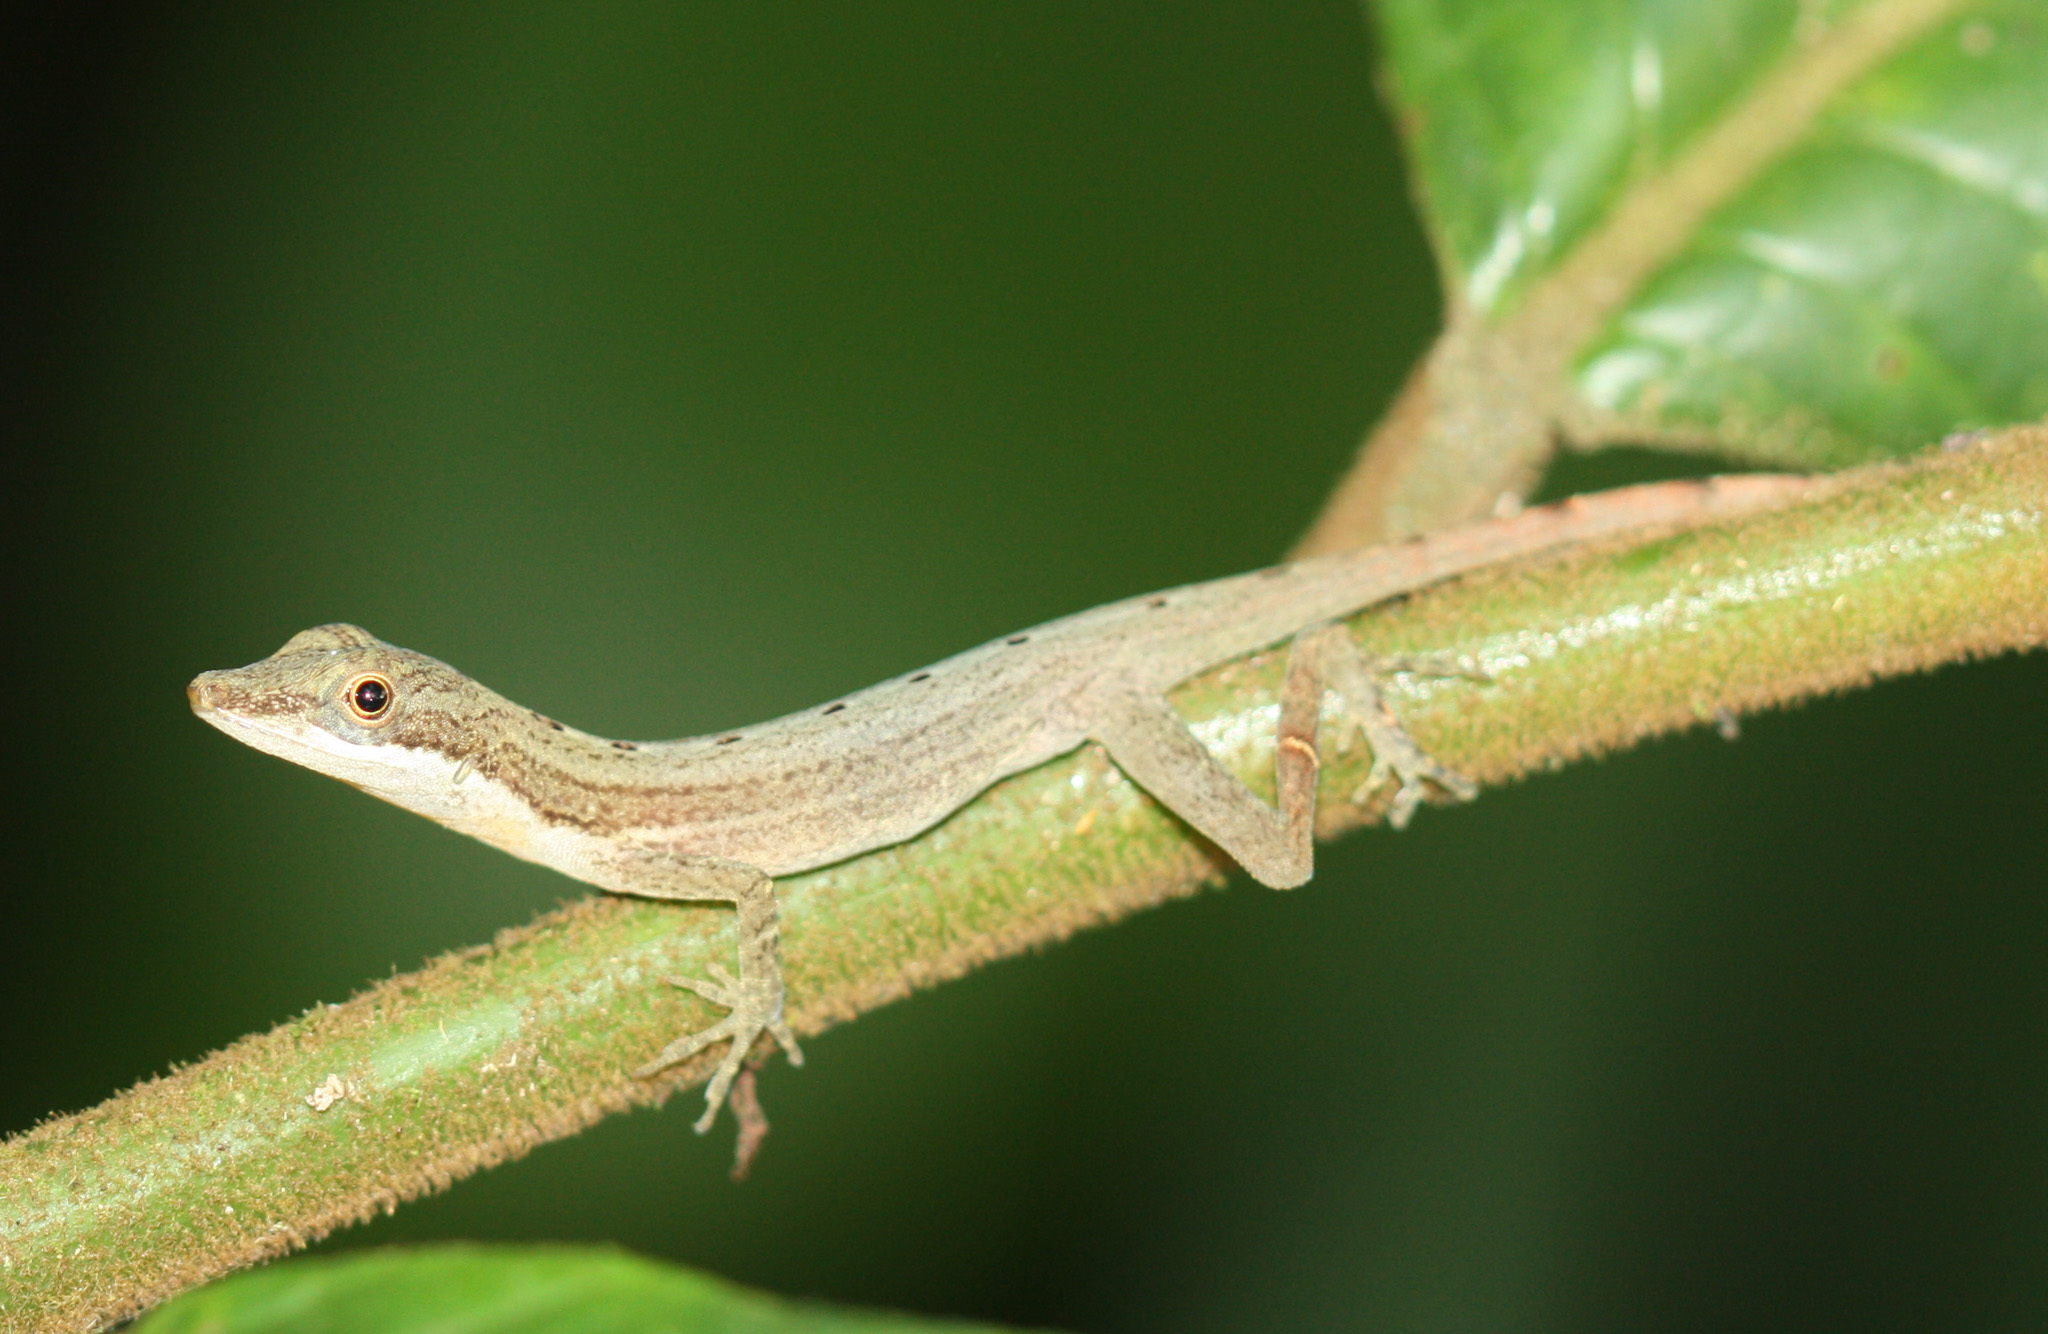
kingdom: Animalia
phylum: Chordata
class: Squamata
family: Dactyloidae
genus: Anolis
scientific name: Anolis limifrons
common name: Border anole
